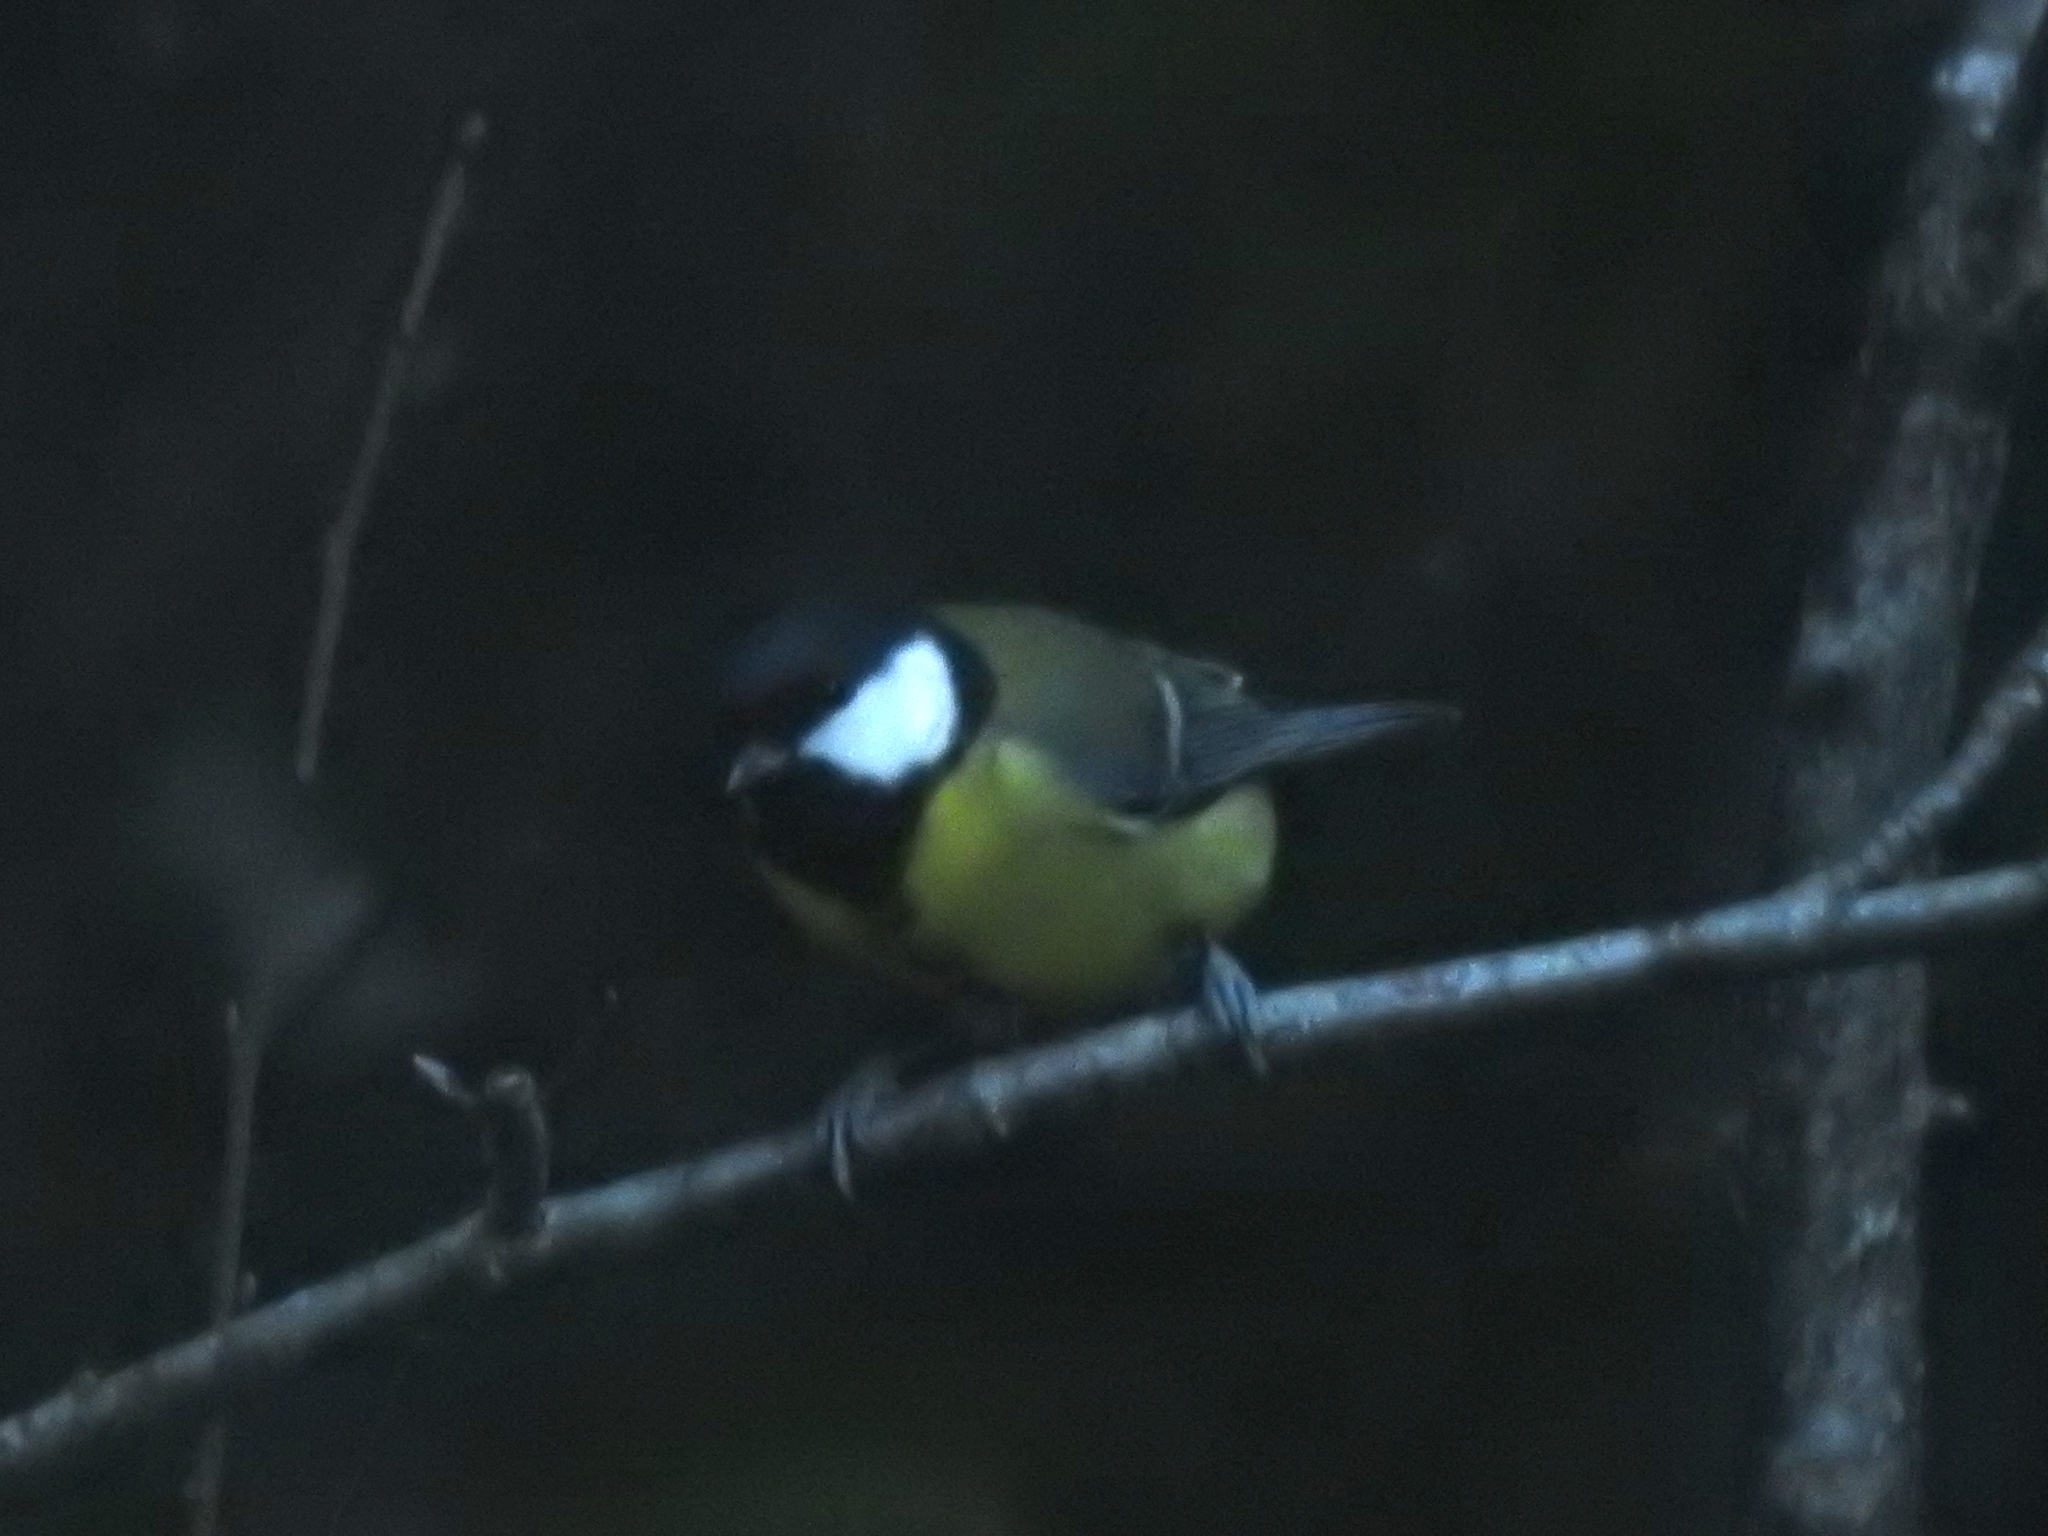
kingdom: Animalia
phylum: Chordata
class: Aves
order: Passeriformes
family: Paridae
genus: Parus
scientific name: Parus major
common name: Great tit
